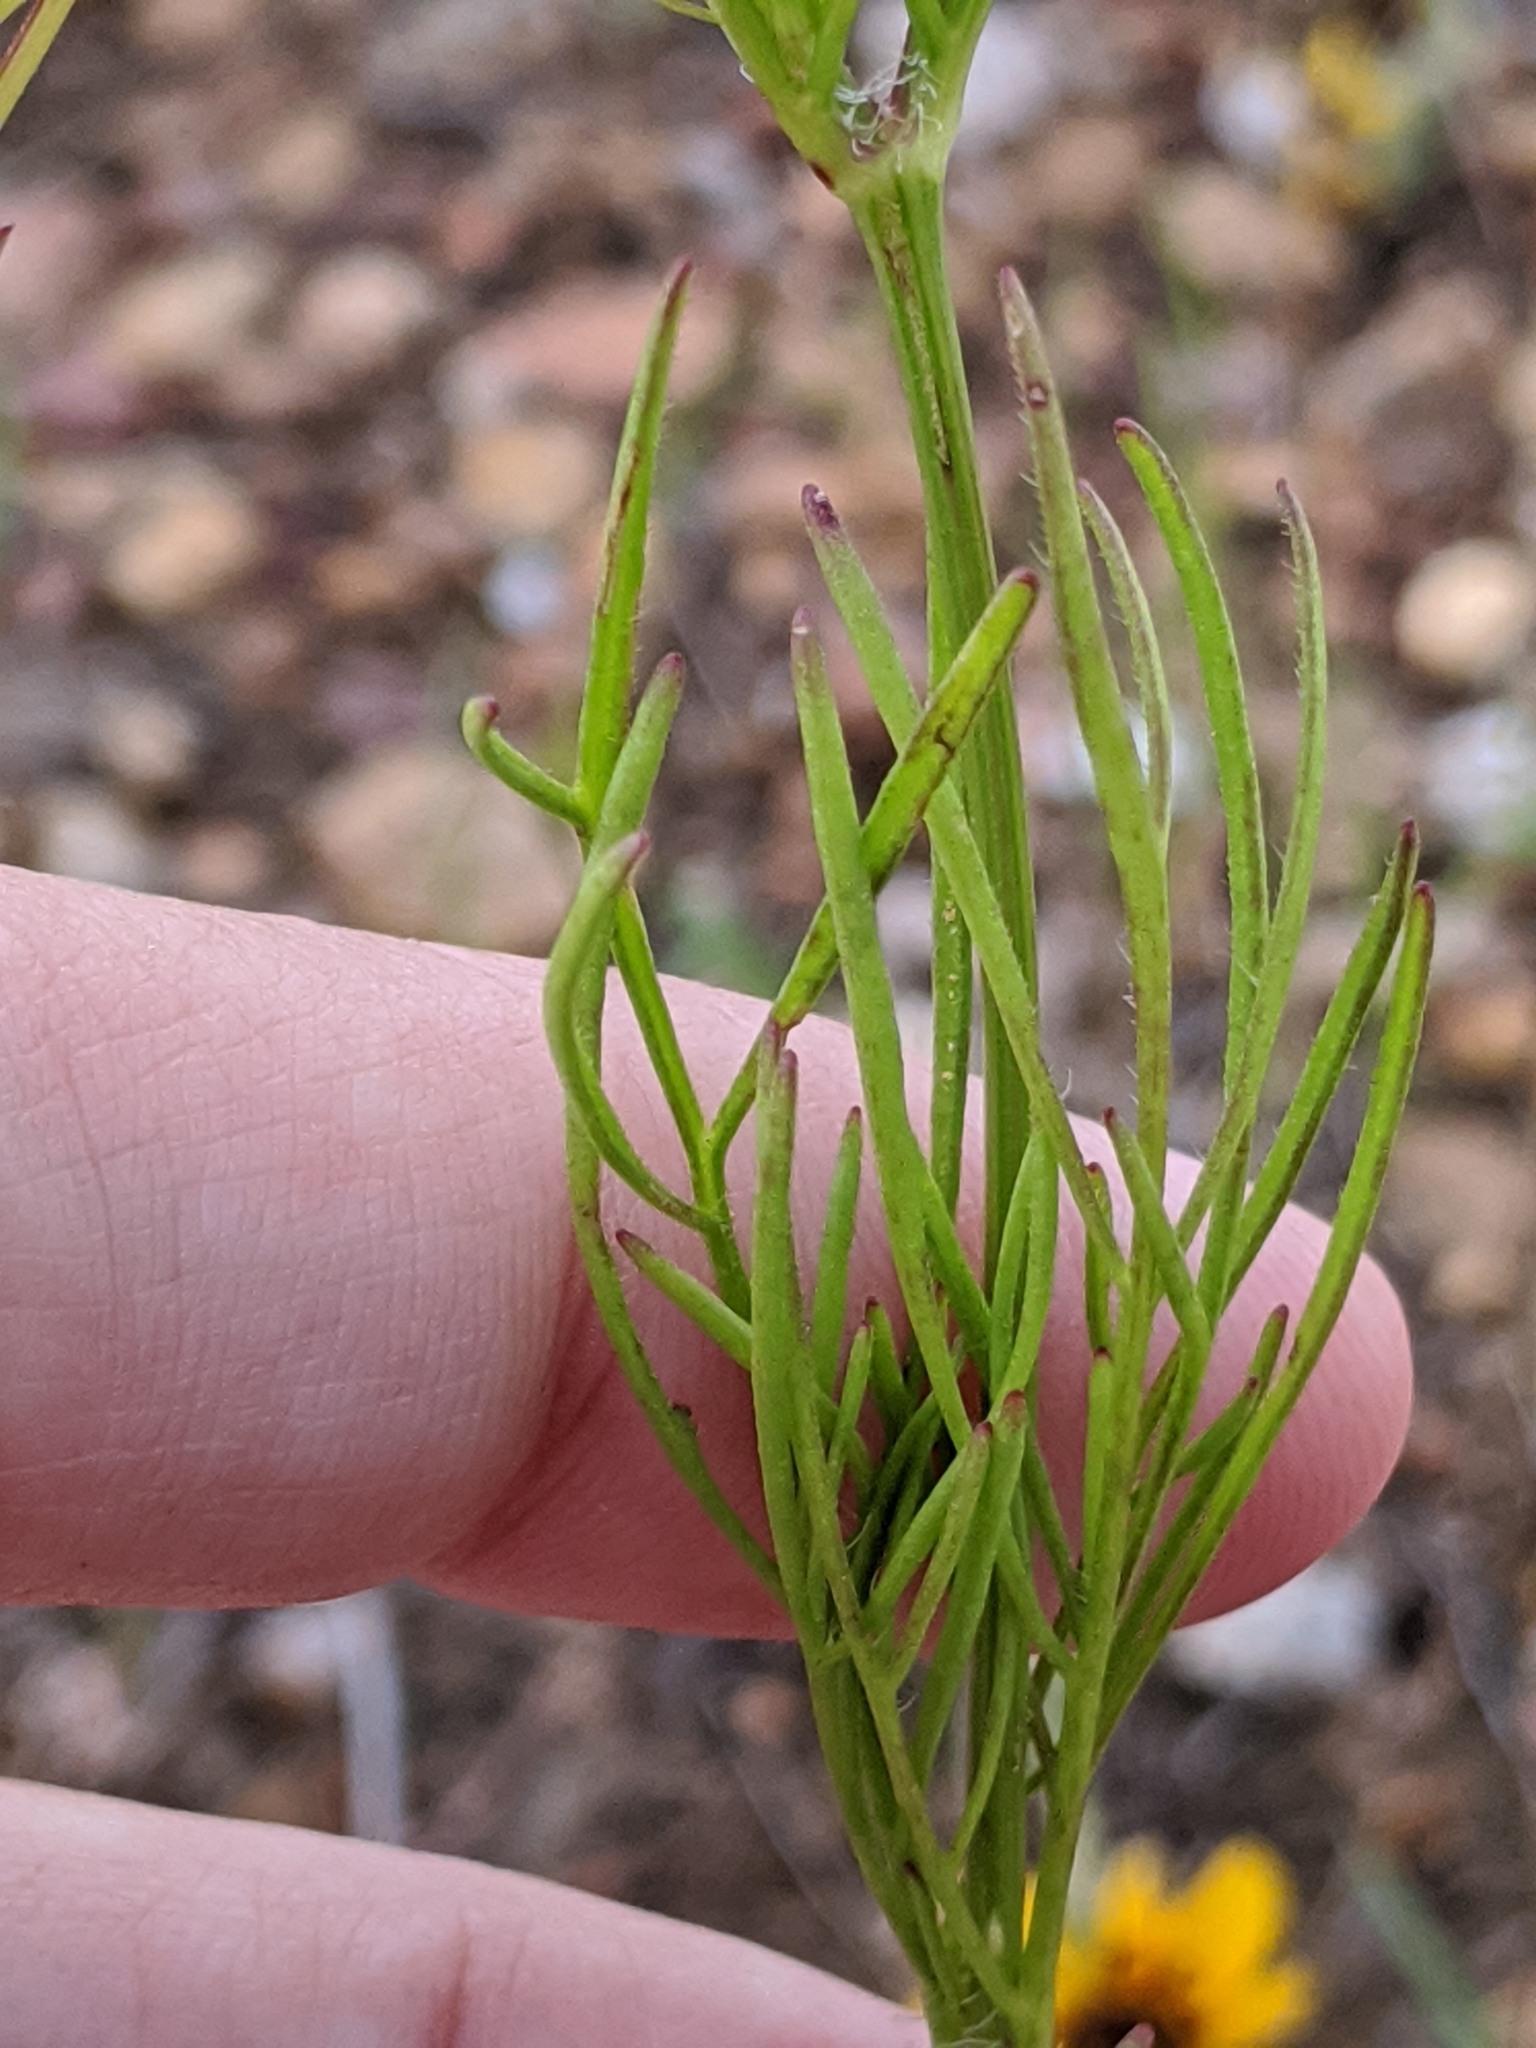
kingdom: Plantae
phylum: Tracheophyta
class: Magnoliopsida
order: Asterales
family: Asteraceae
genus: Coreopsis
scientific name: Coreopsis basalis
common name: Golden-mane coreopsis
